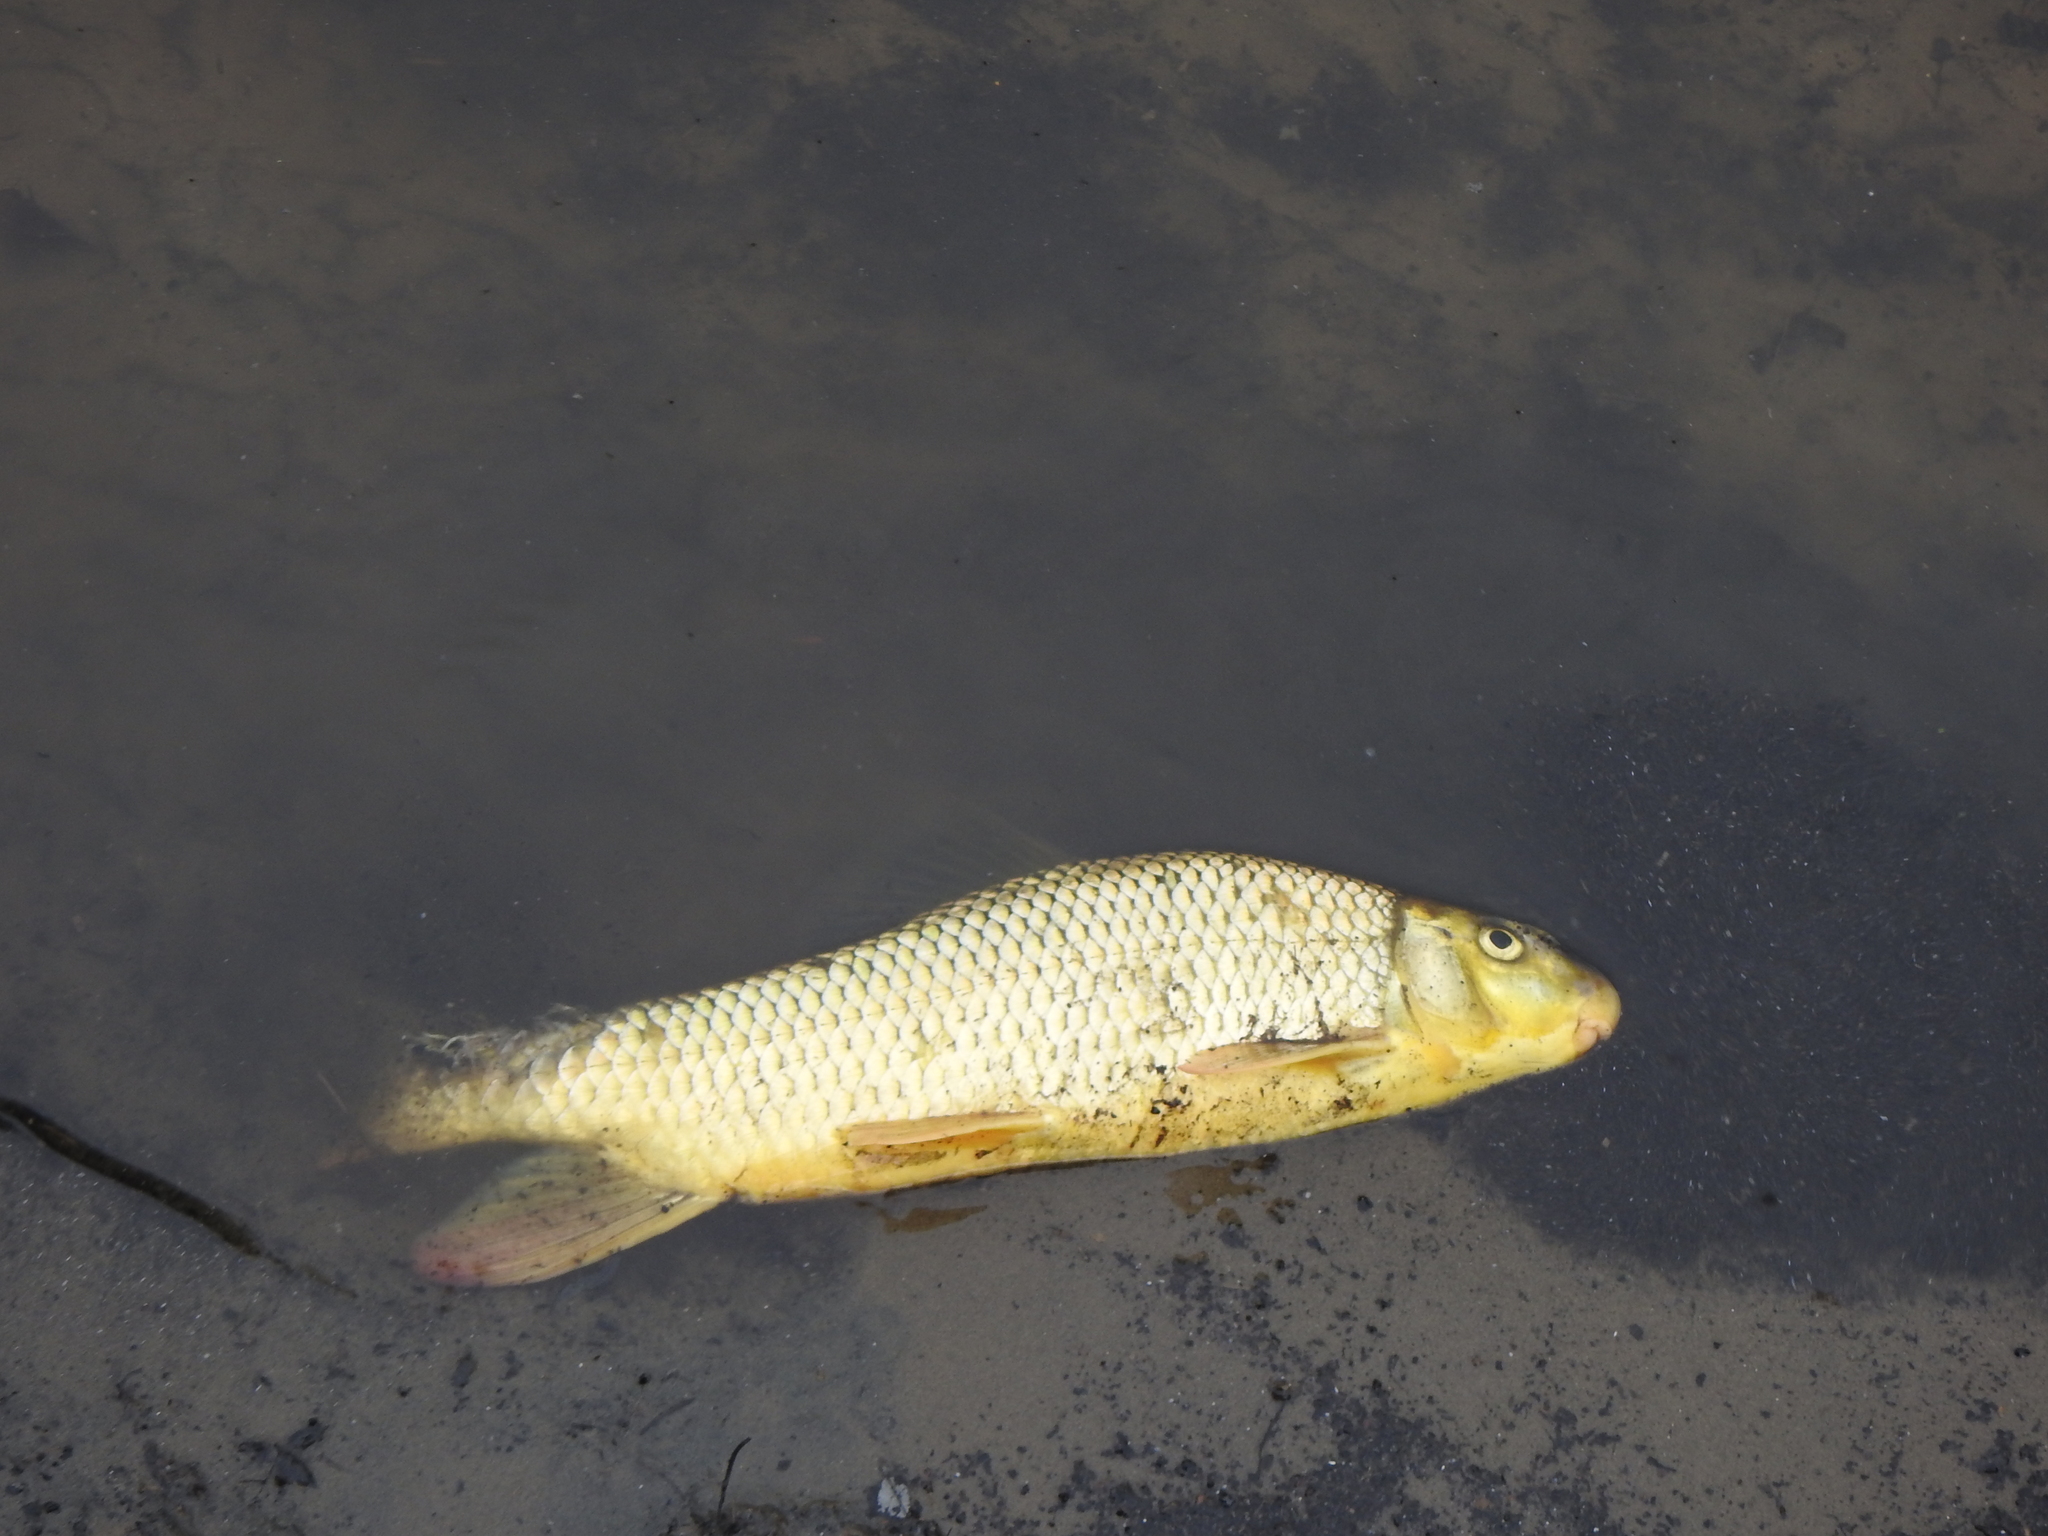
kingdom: Animalia
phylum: Chordata
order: Cypriniformes
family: Catostomidae
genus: Moxostoma
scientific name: Moxostoma macrolepidotum
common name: Shorthead redhorse
